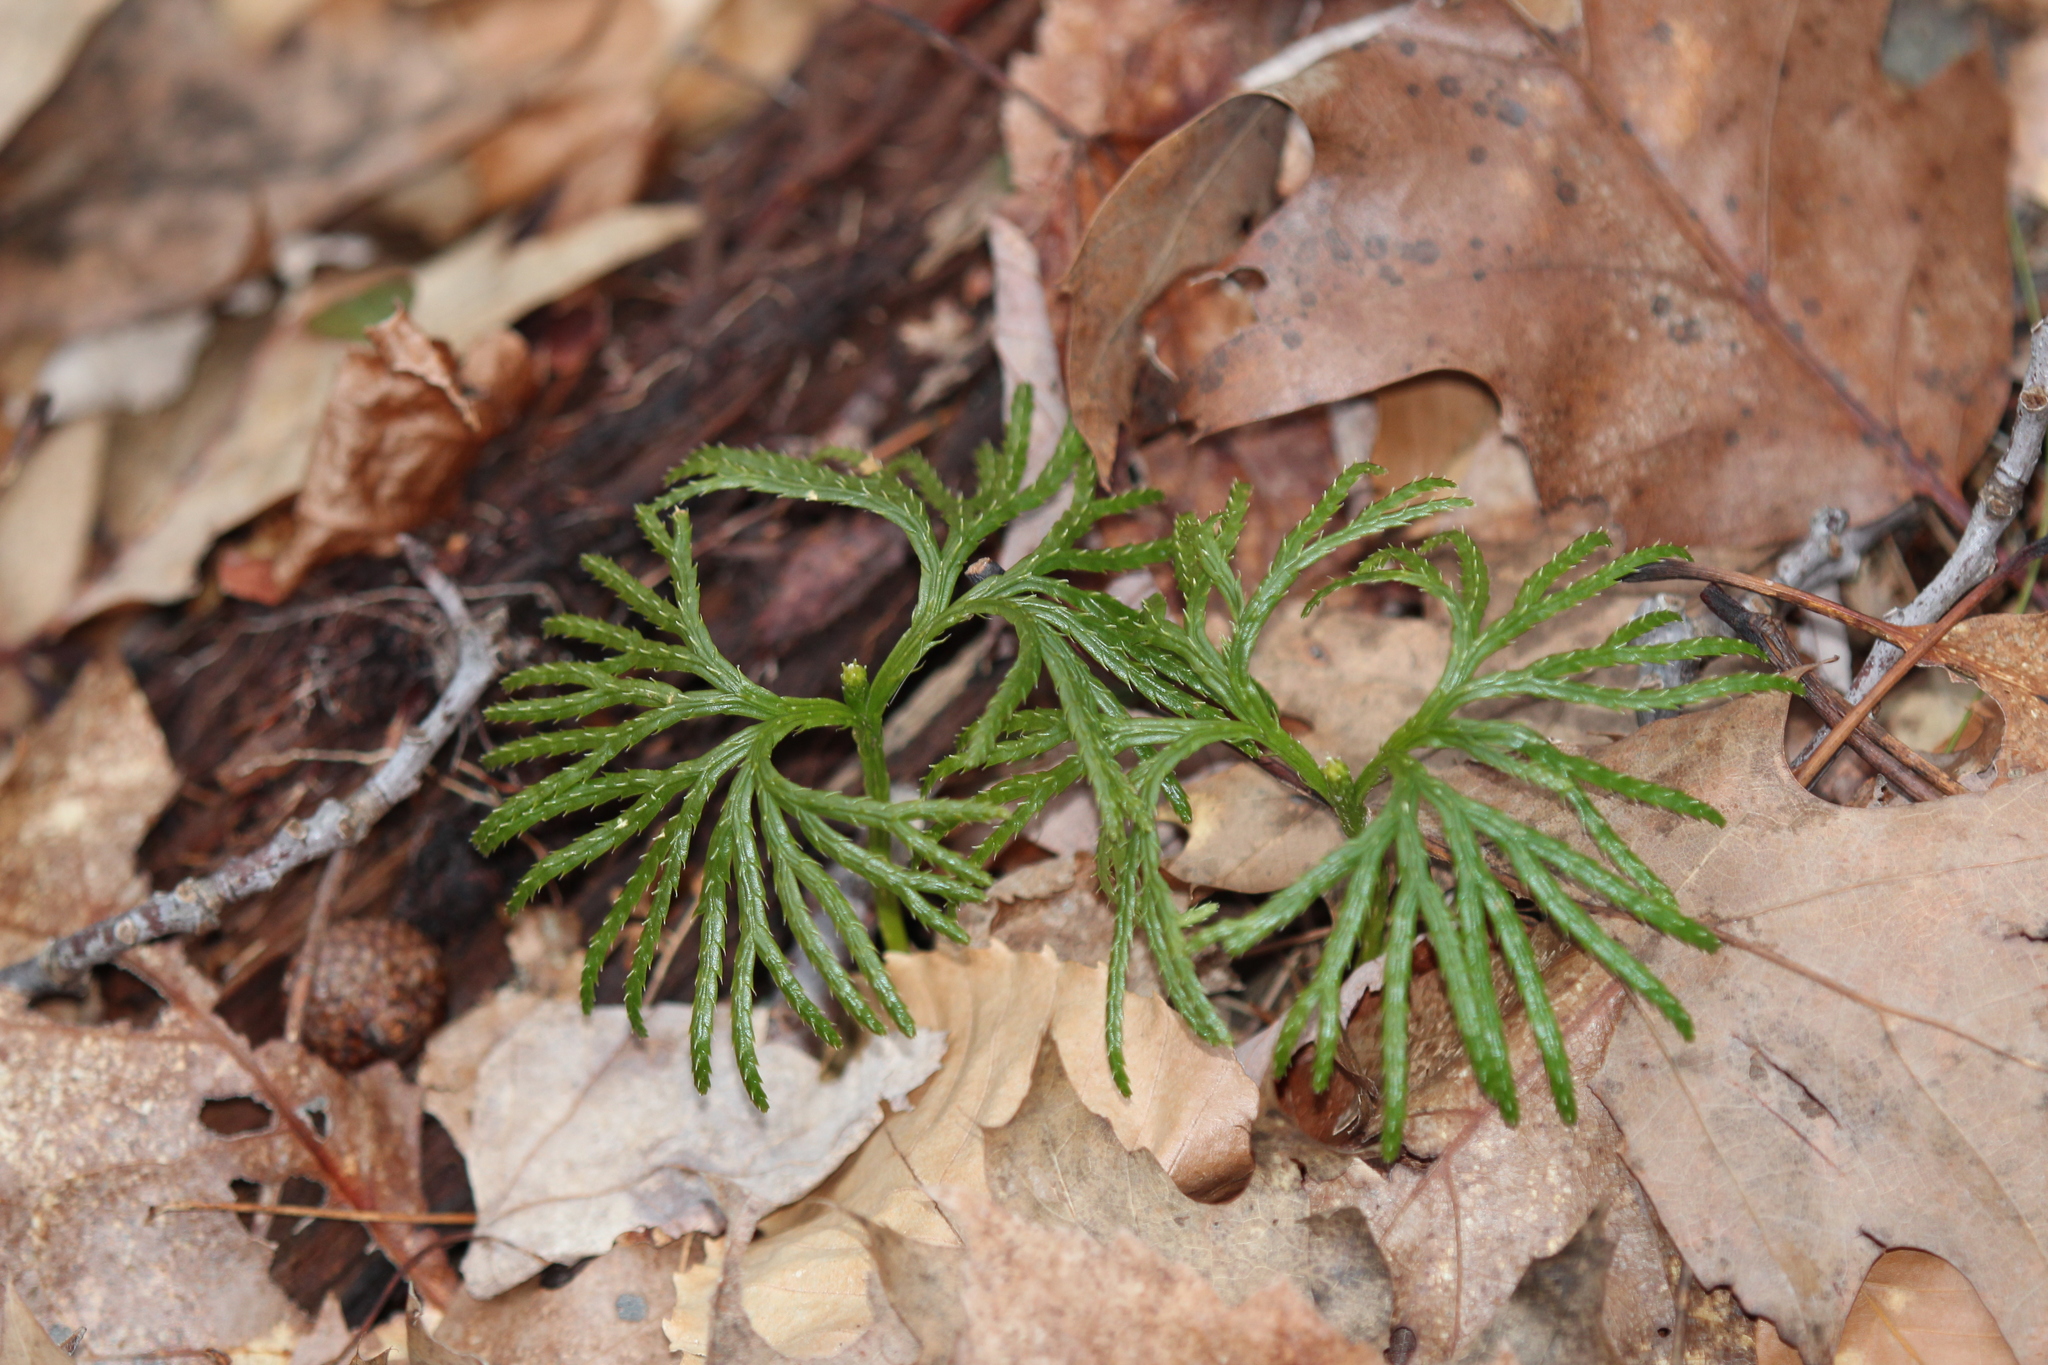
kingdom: Plantae
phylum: Tracheophyta
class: Lycopodiopsida
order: Lycopodiales
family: Lycopodiaceae
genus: Diphasiastrum
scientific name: Diphasiastrum digitatum
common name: Southern running-pine
